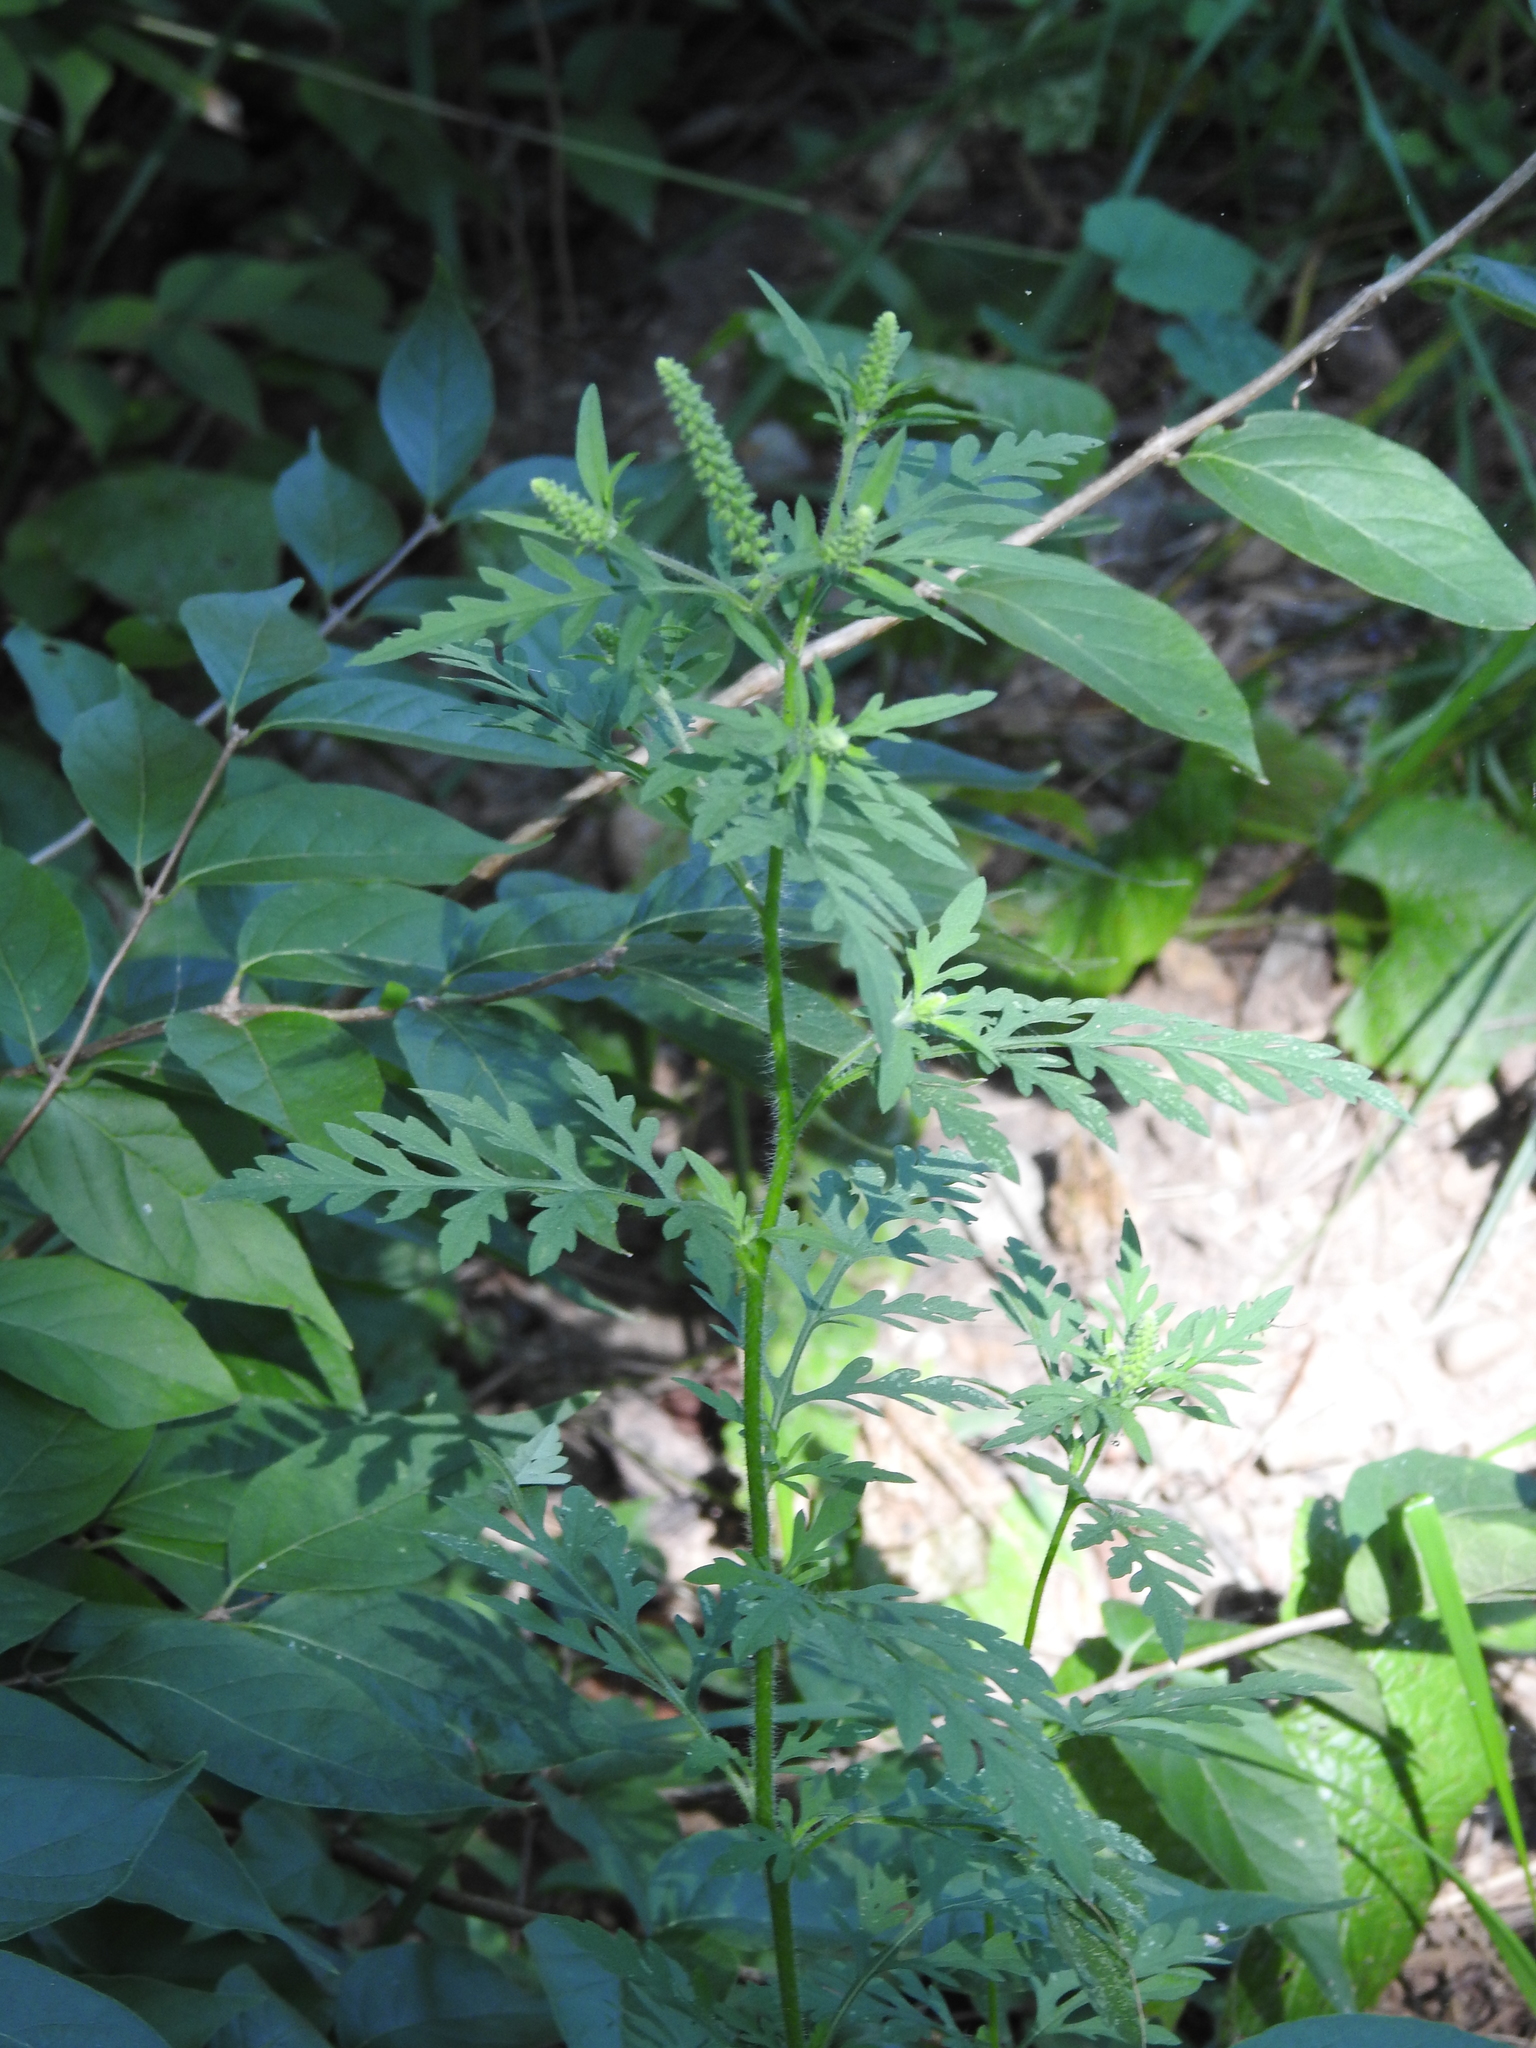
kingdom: Plantae
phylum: Tracheophyta
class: Magnoliopsida
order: Asterales
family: Asteraceae
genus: Ambrosia
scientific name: Ambrosia artemisiifolia
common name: Annual ragweed
